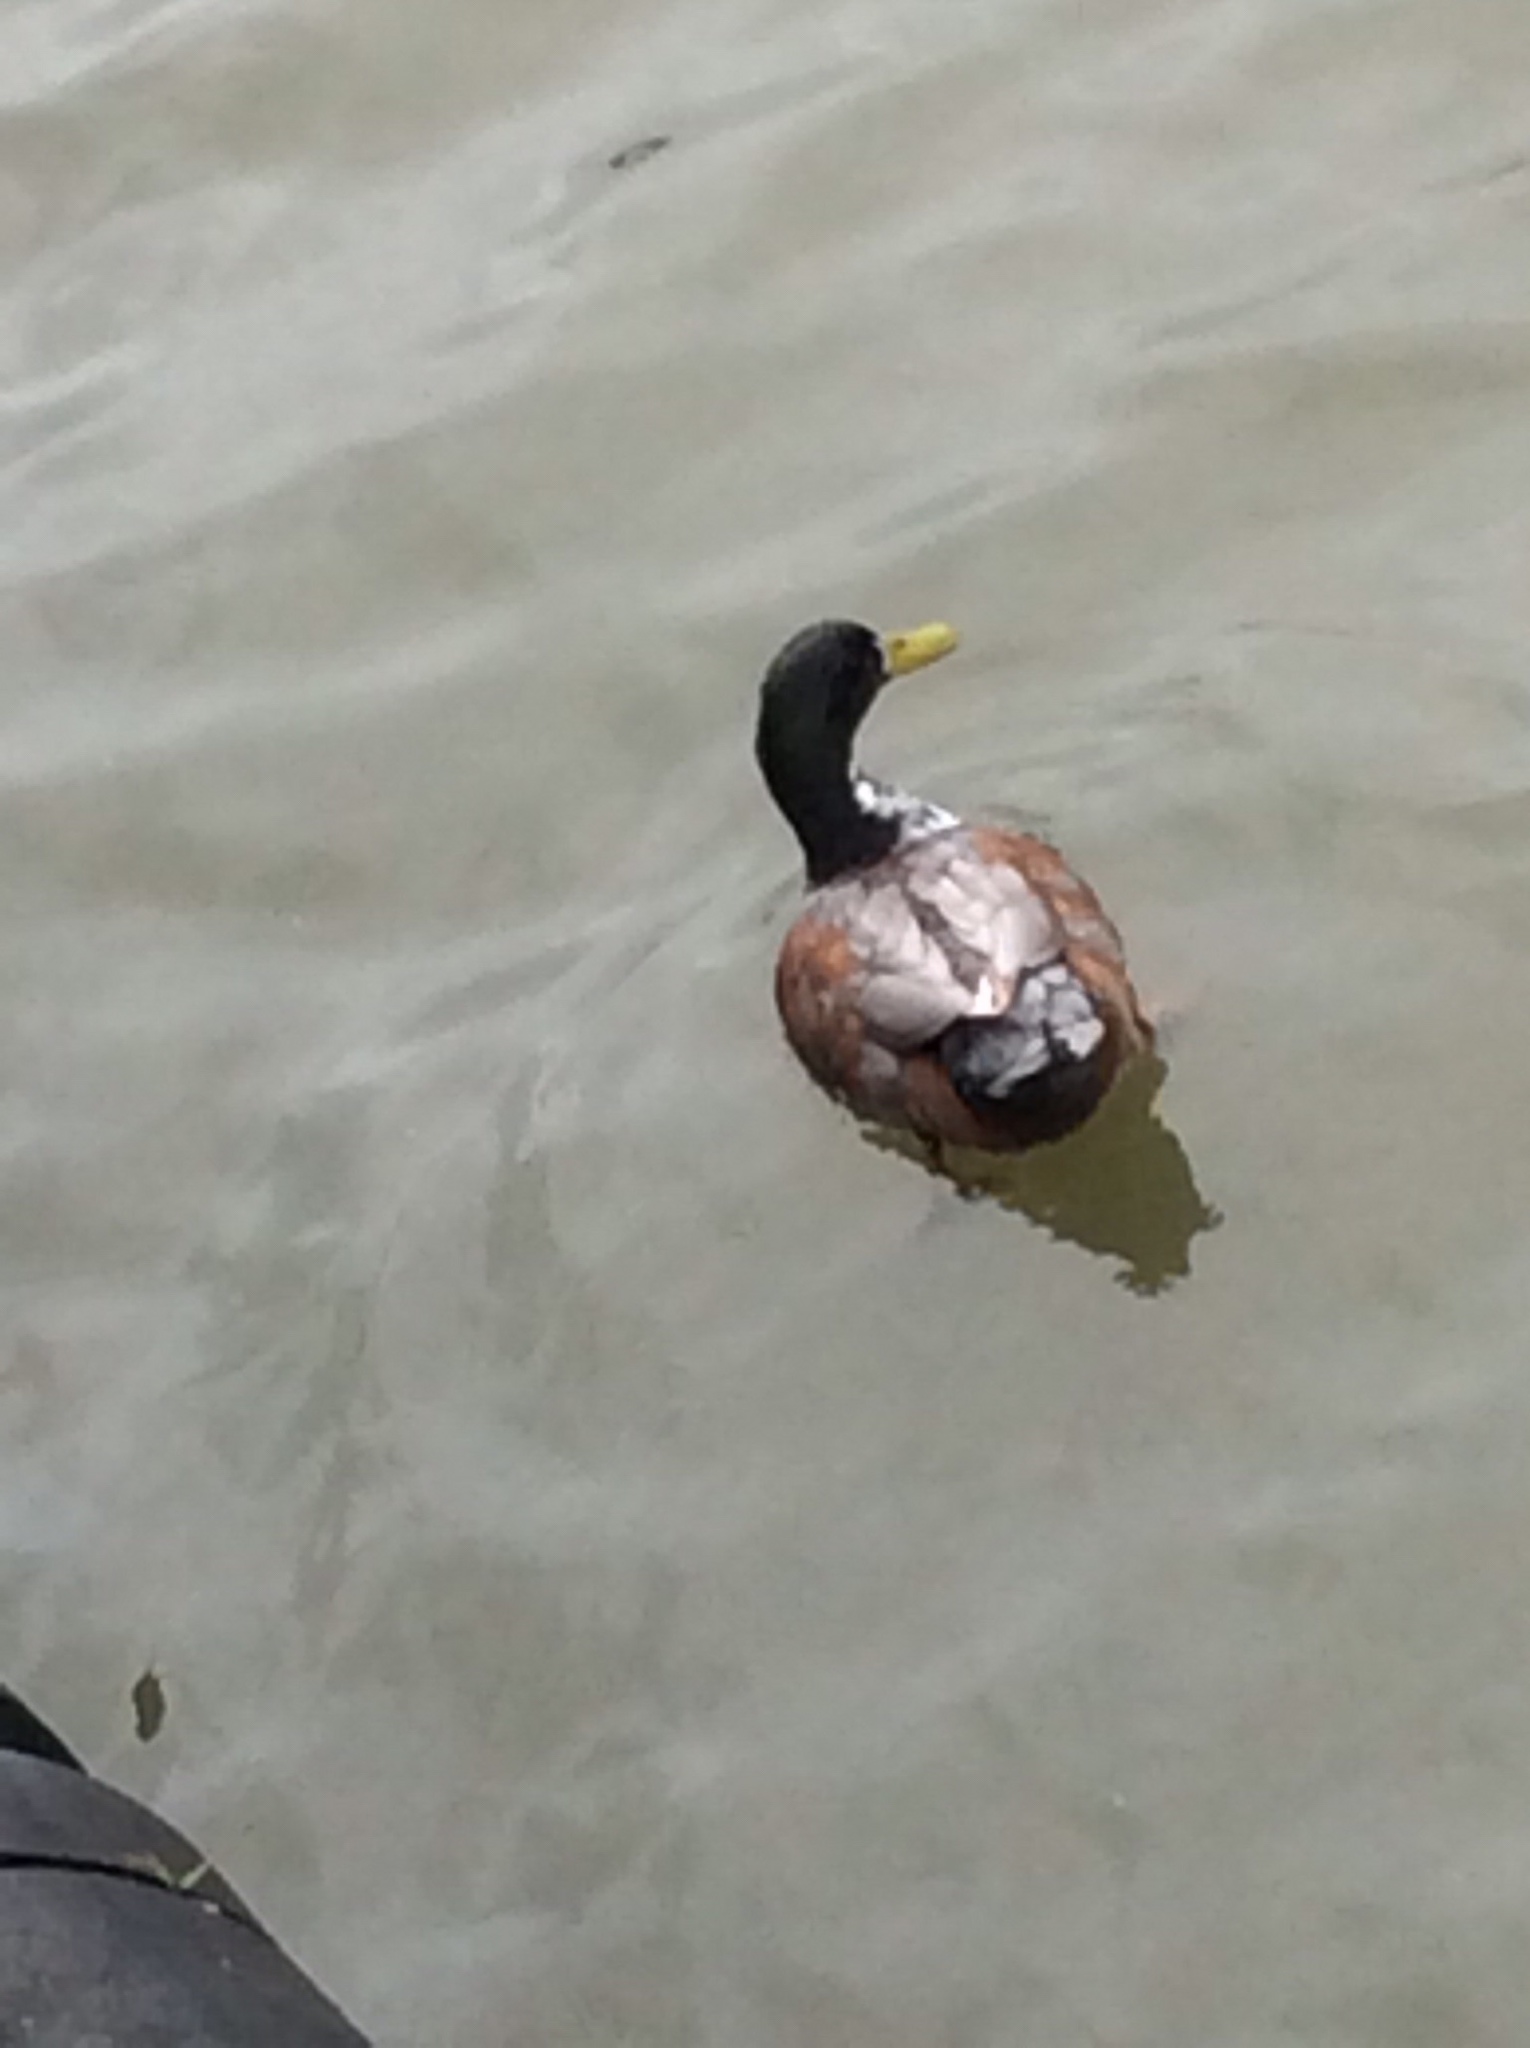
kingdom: Animalia
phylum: Chordata
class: Aves
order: Anseriformes
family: Anatidae
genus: Anas
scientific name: Anas platyrhynchos
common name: Mallard
